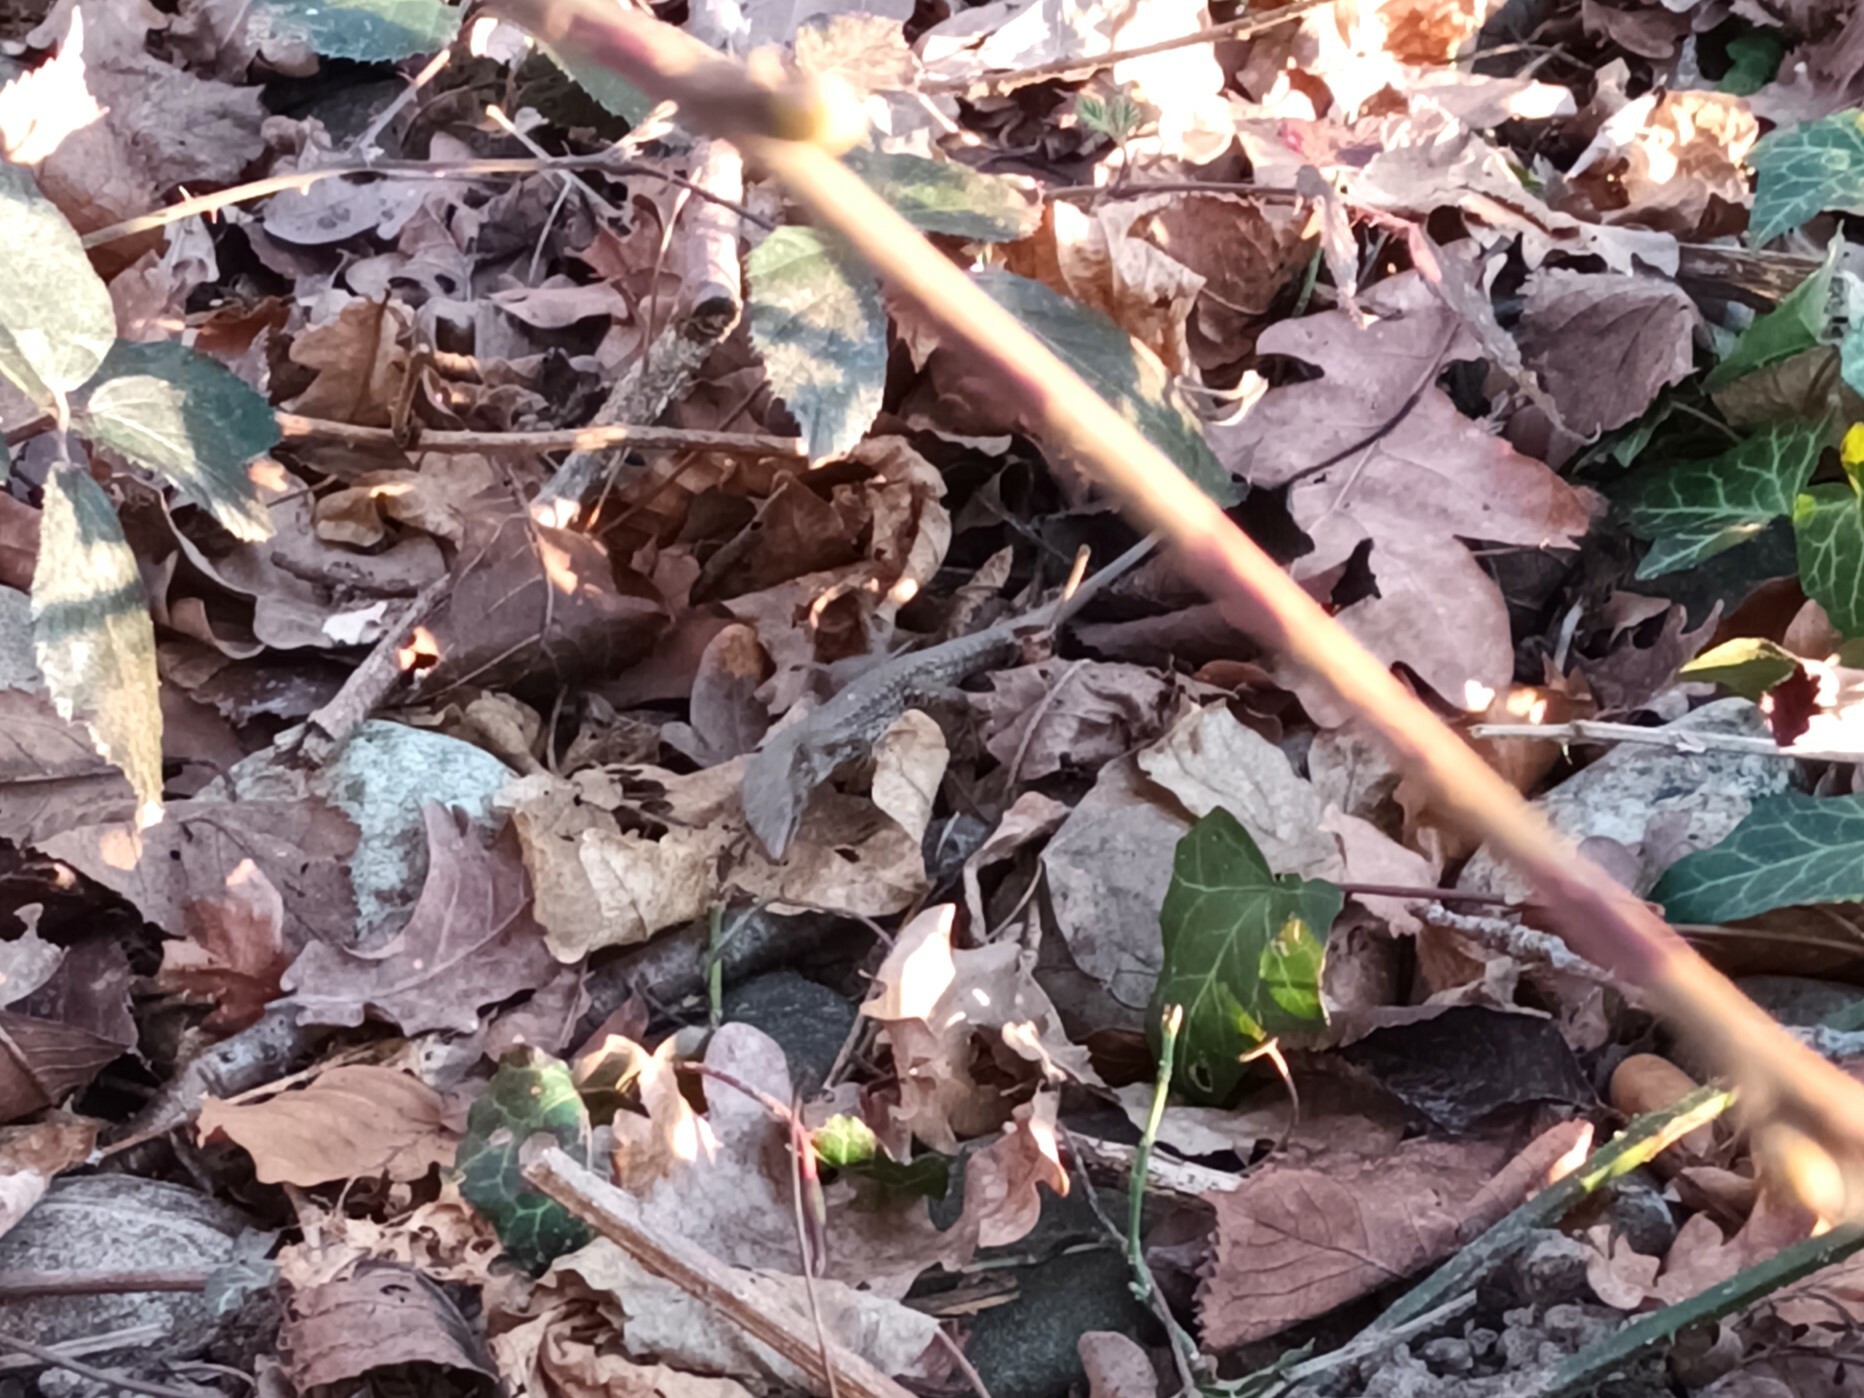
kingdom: Animalia
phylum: Chordata
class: Squamata
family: Lacertidae
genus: Podarcis
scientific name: Podarcis muralis
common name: Common wall lizard
